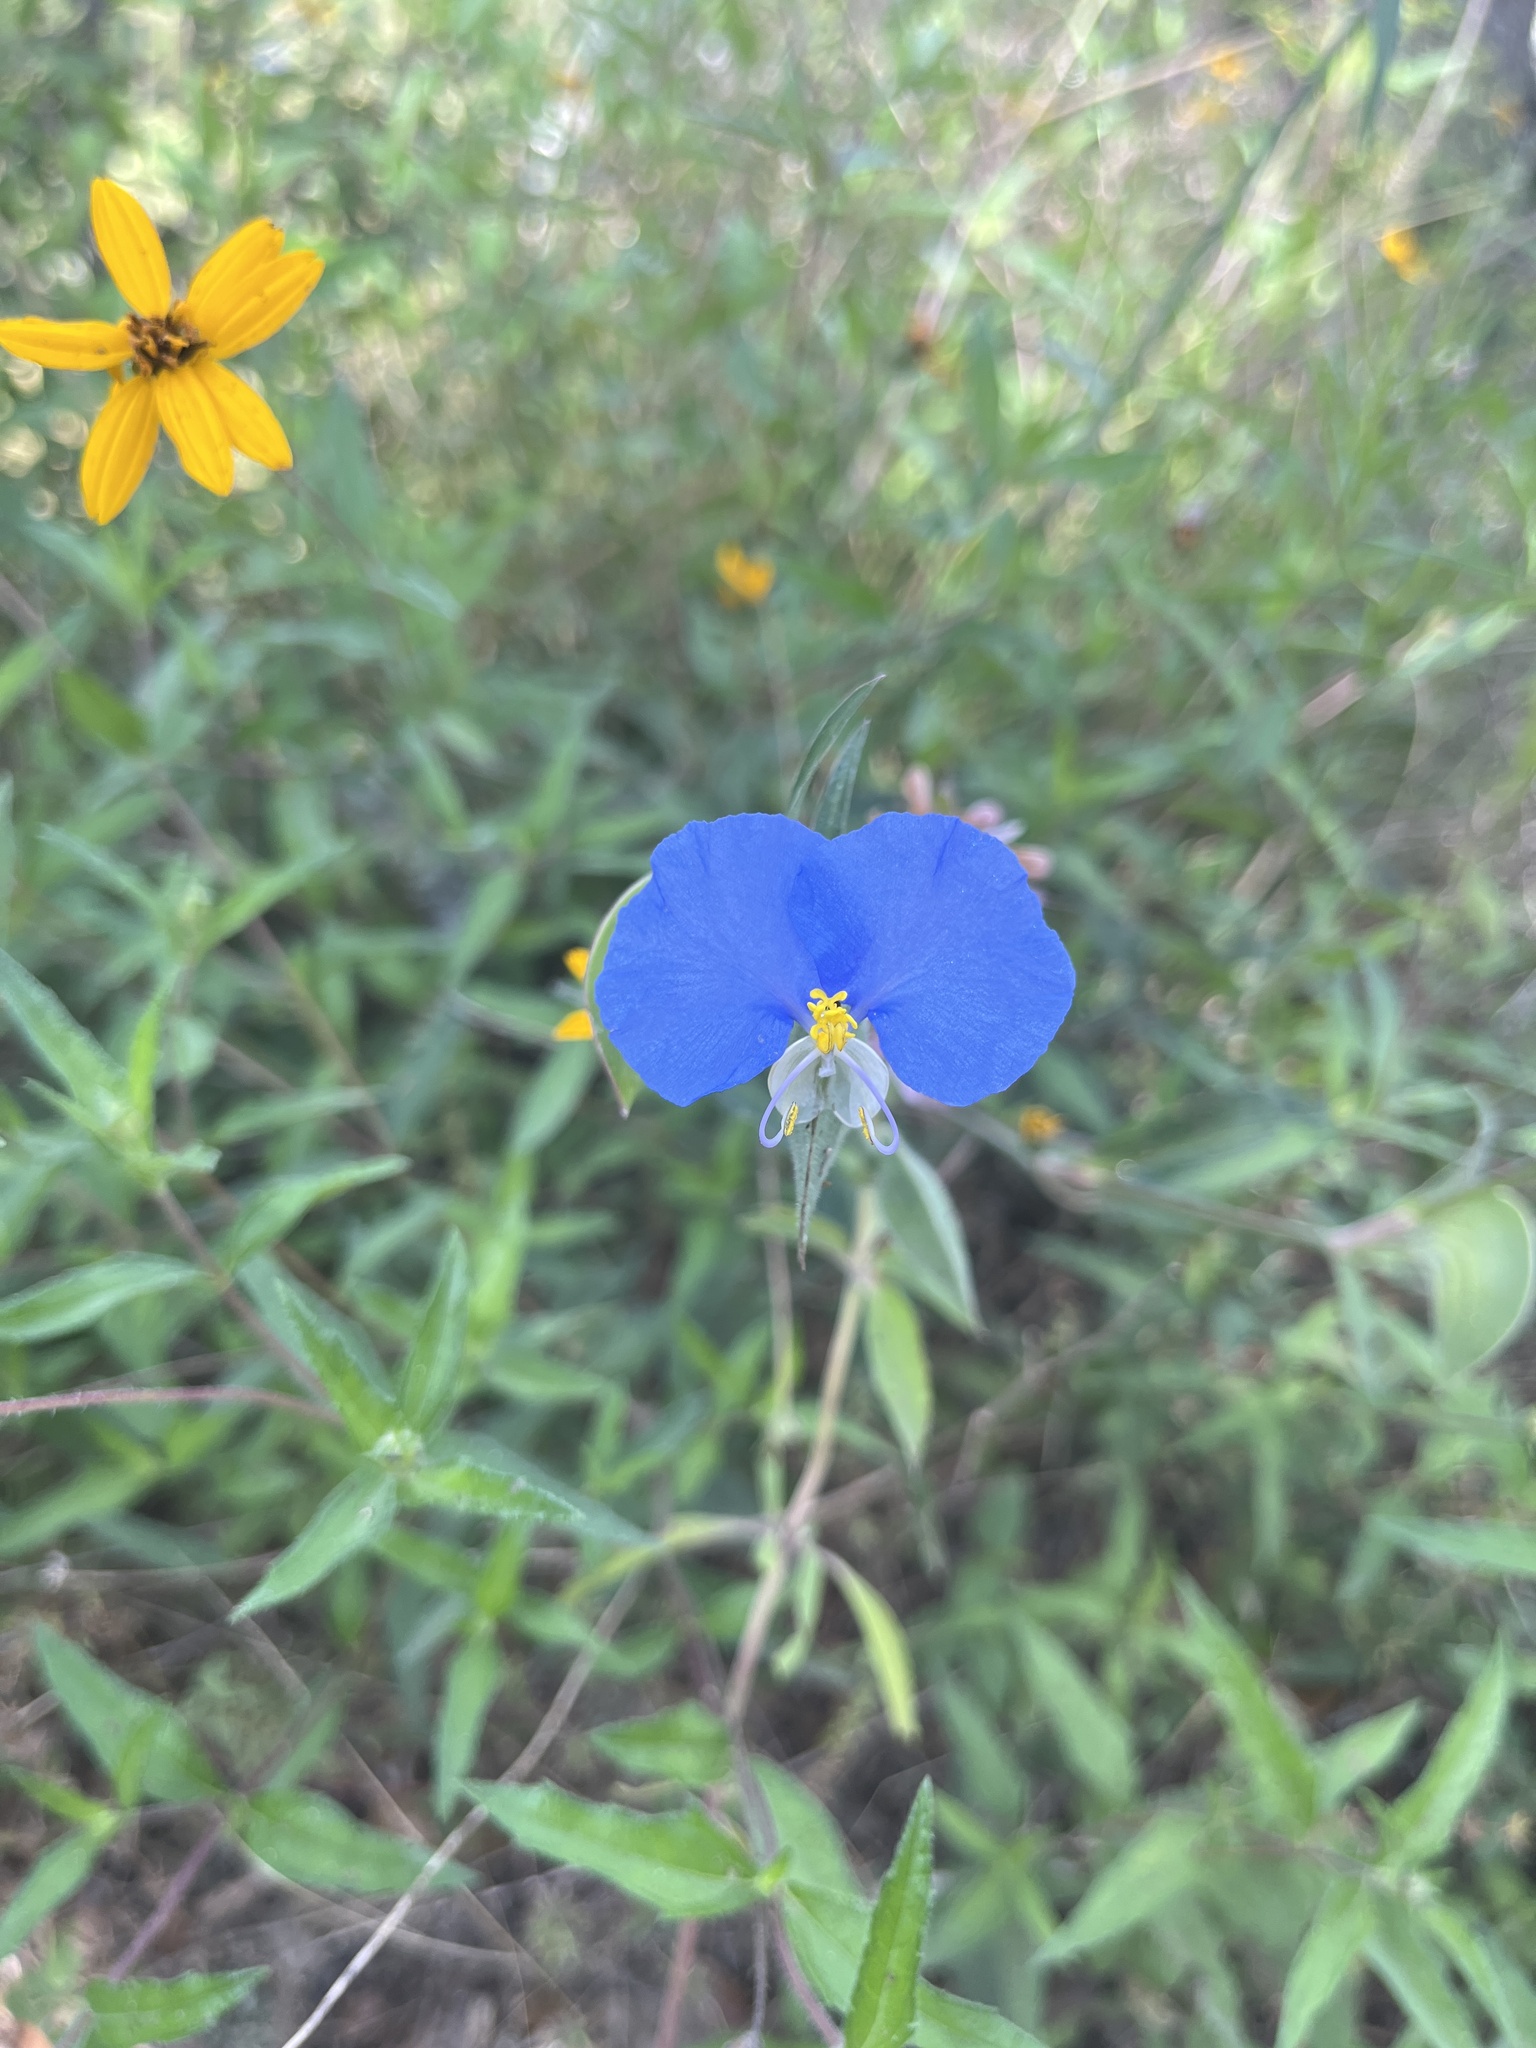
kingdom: Plantae
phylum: Tracheophyta
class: Liliopsida
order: Commelinales
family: Commelinaceae
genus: Commelina
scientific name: Commelina erecta
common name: Blousel blommetjie
